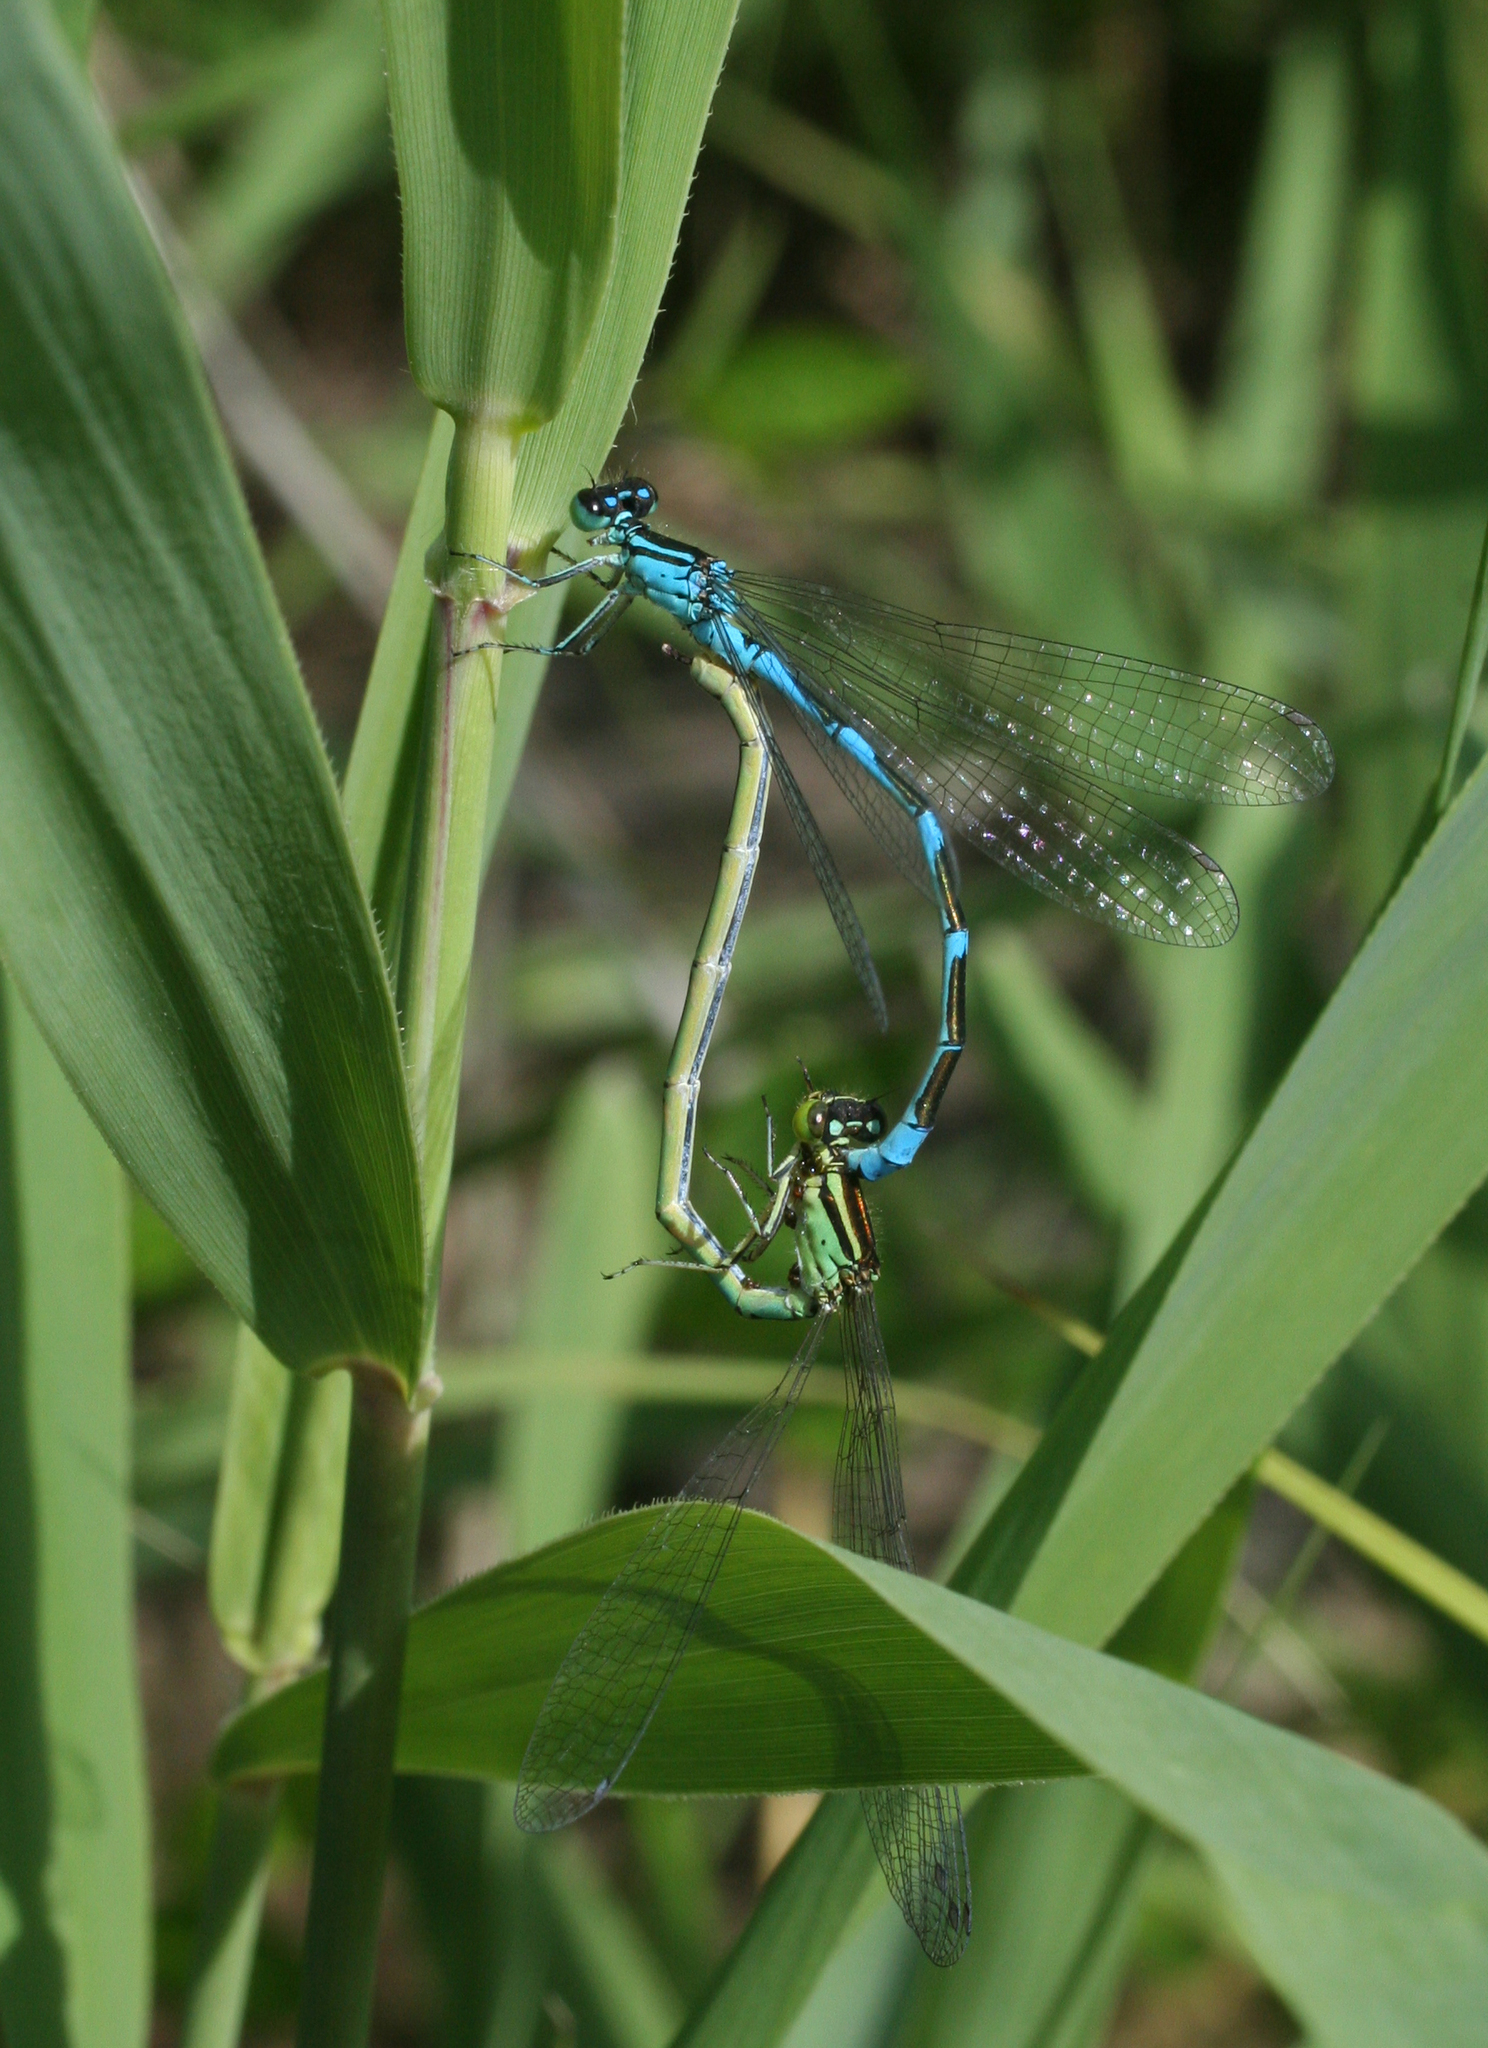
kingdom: Animalia
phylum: Arthropoda
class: Insecta
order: Odonata
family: Coenagrionidae
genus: Coenagrion
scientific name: Coenagrion lanceolatum
